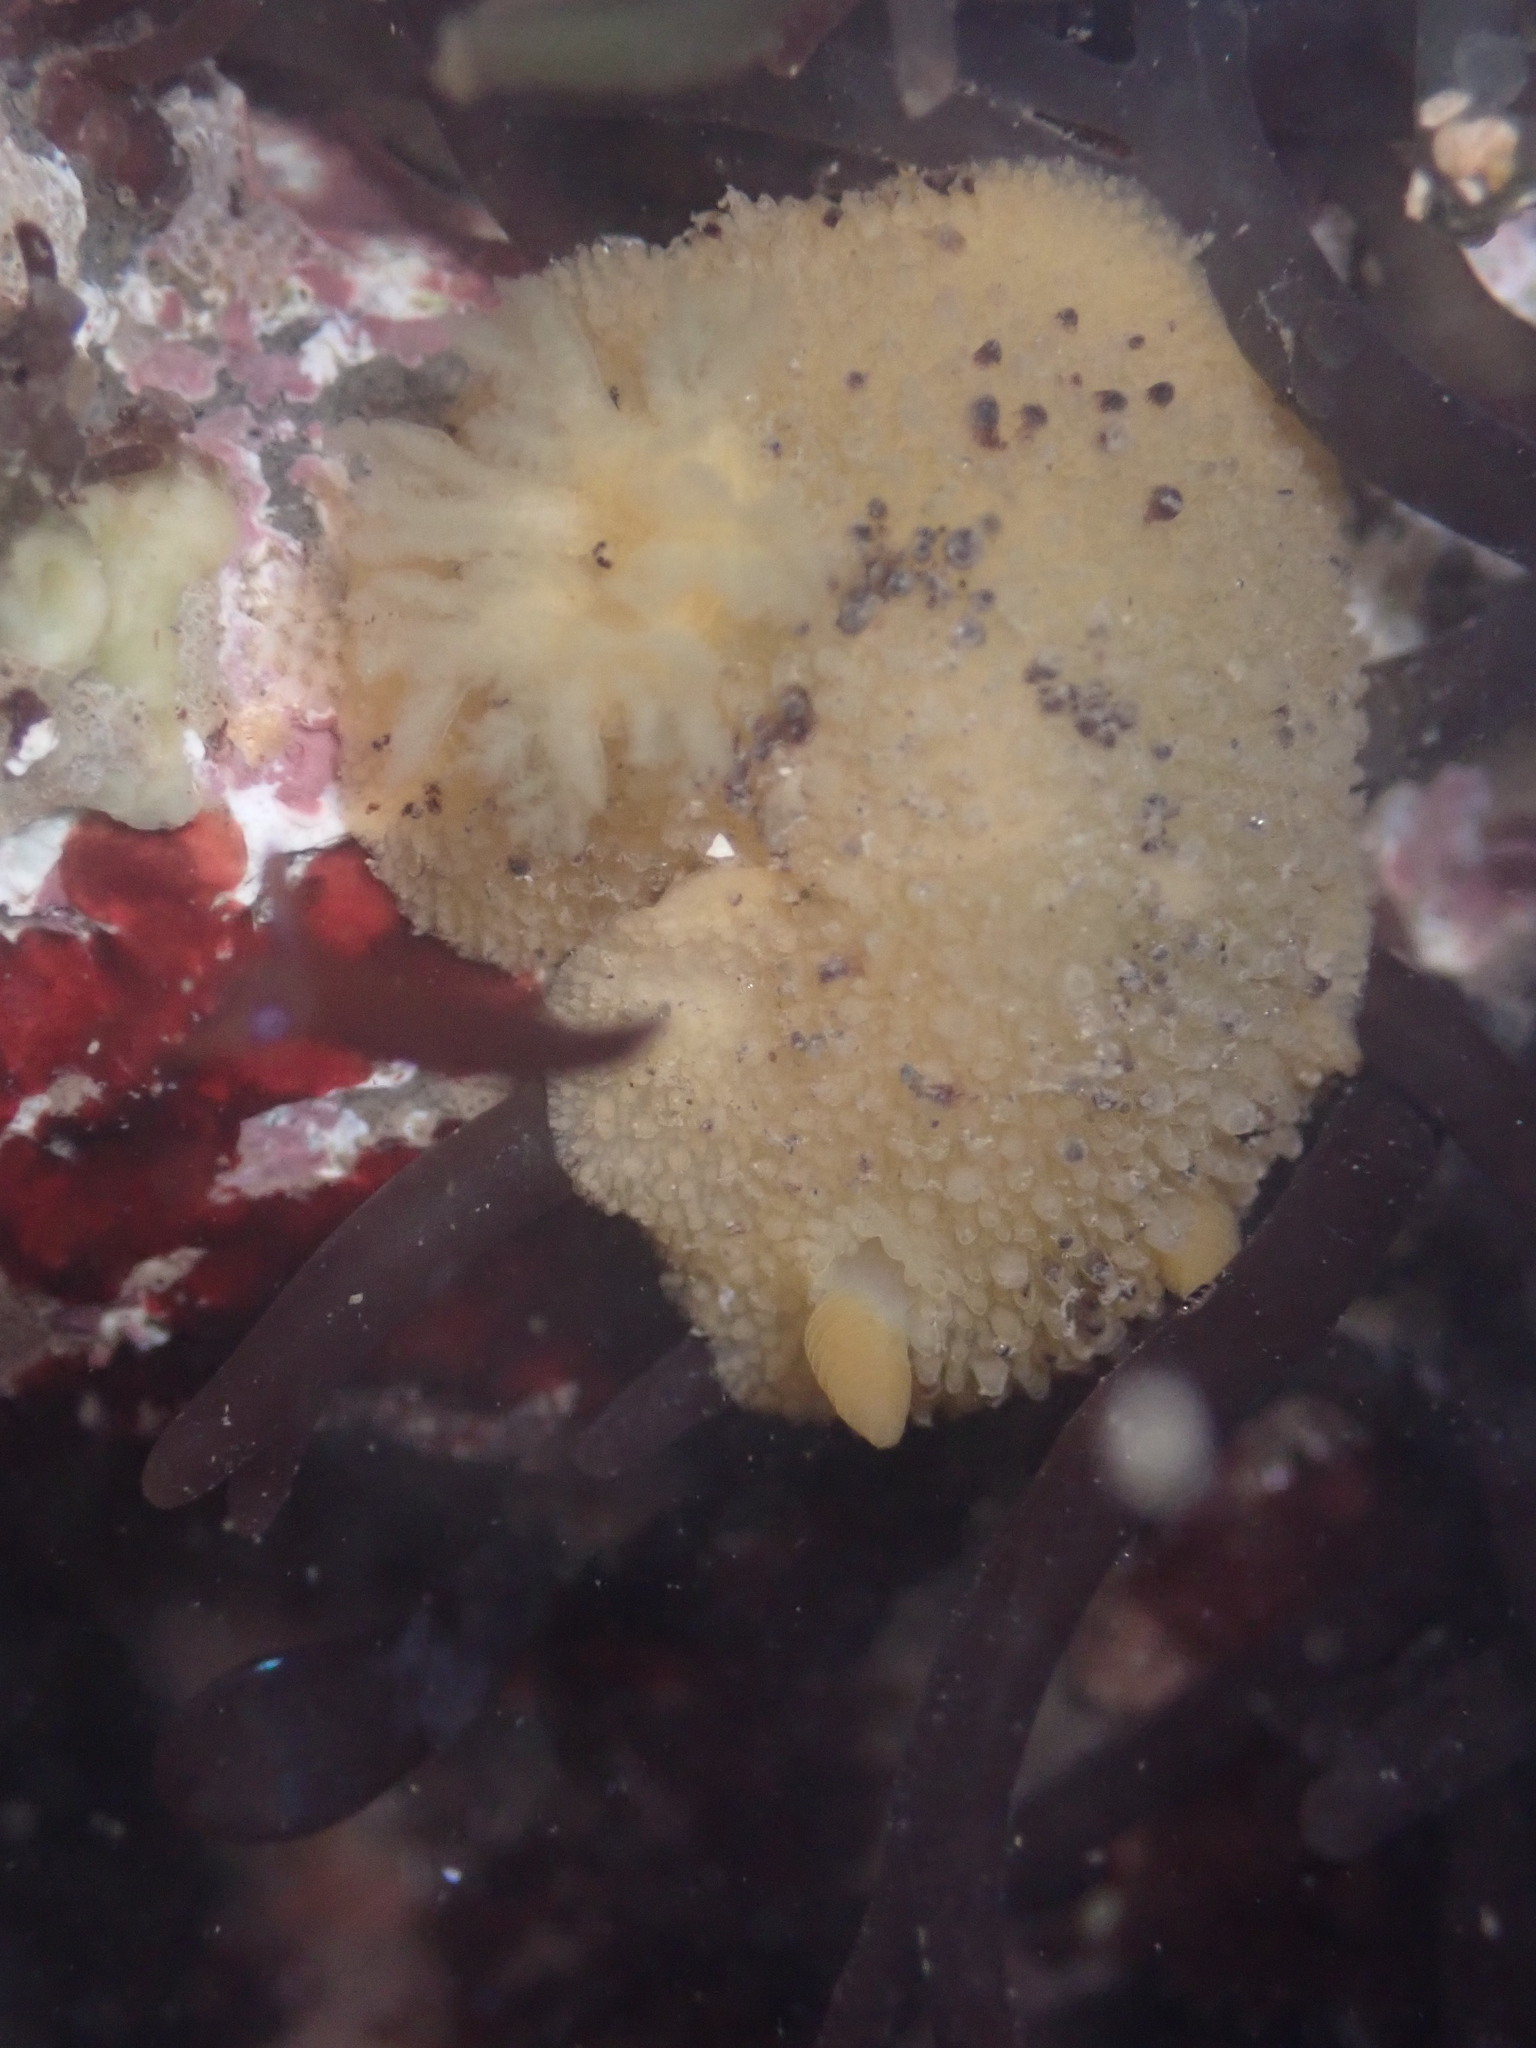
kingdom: Animalia
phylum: Mollusca
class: Gastropoda
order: Nudibranchia
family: Dorididae
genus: Doris
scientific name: Doris montereyensis
